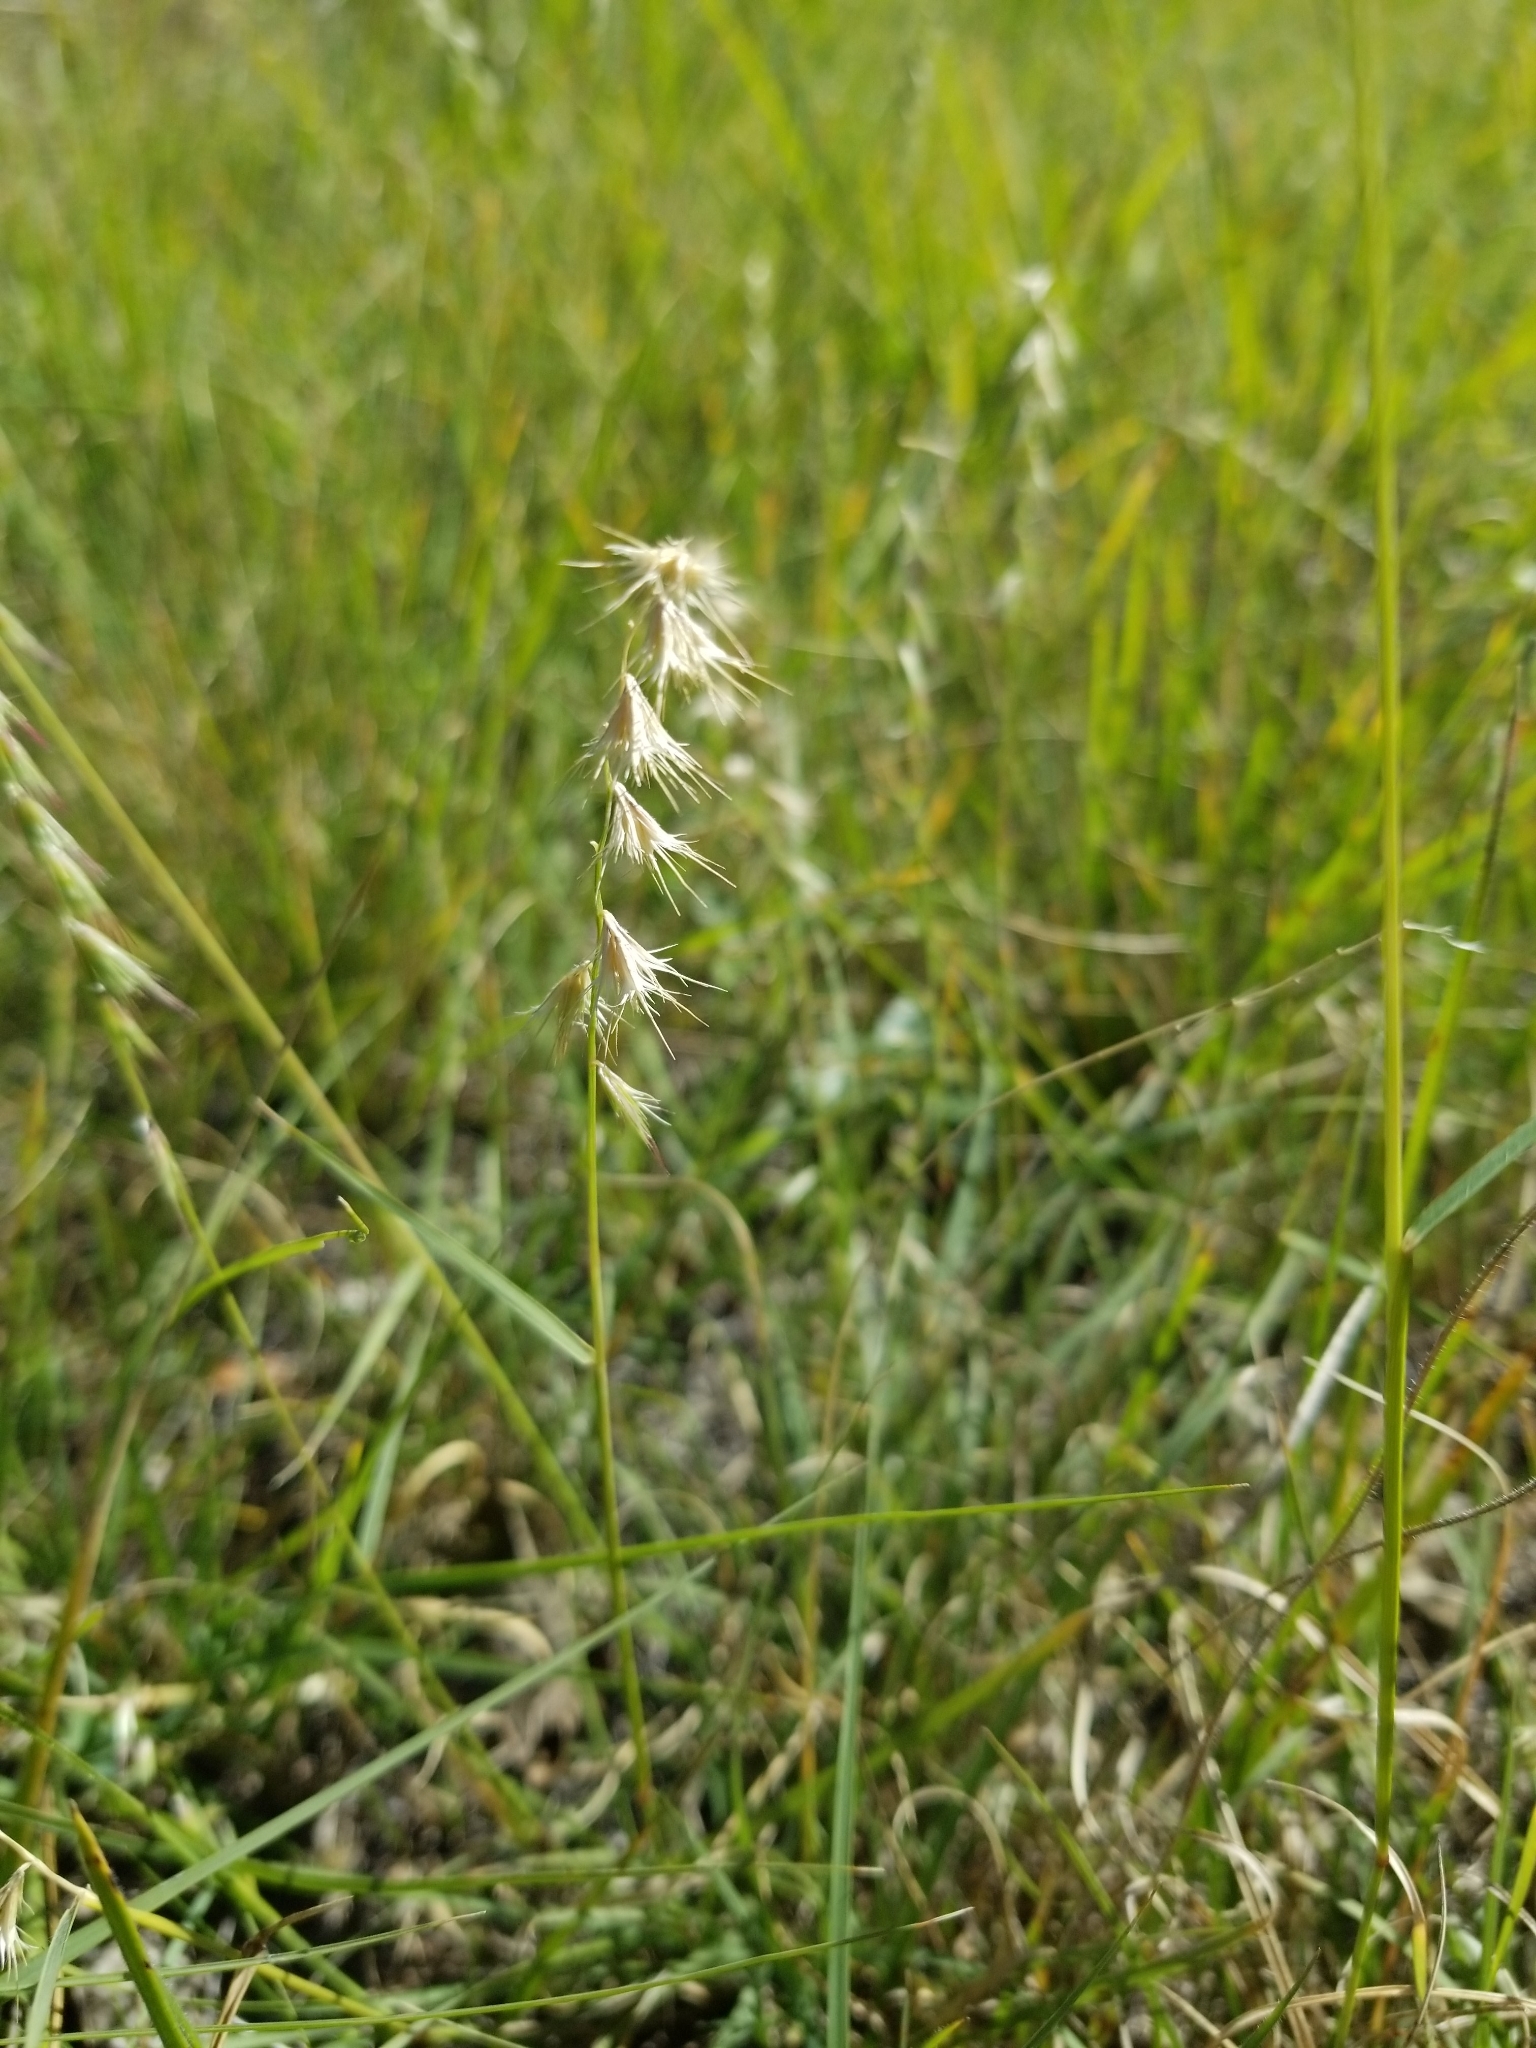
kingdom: Plantae
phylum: Tracheophyta
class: Liliopsida
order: Poales
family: Poaceae
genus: Bouteloua
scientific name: Bouteloua rigidiseta
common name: Texas grama
